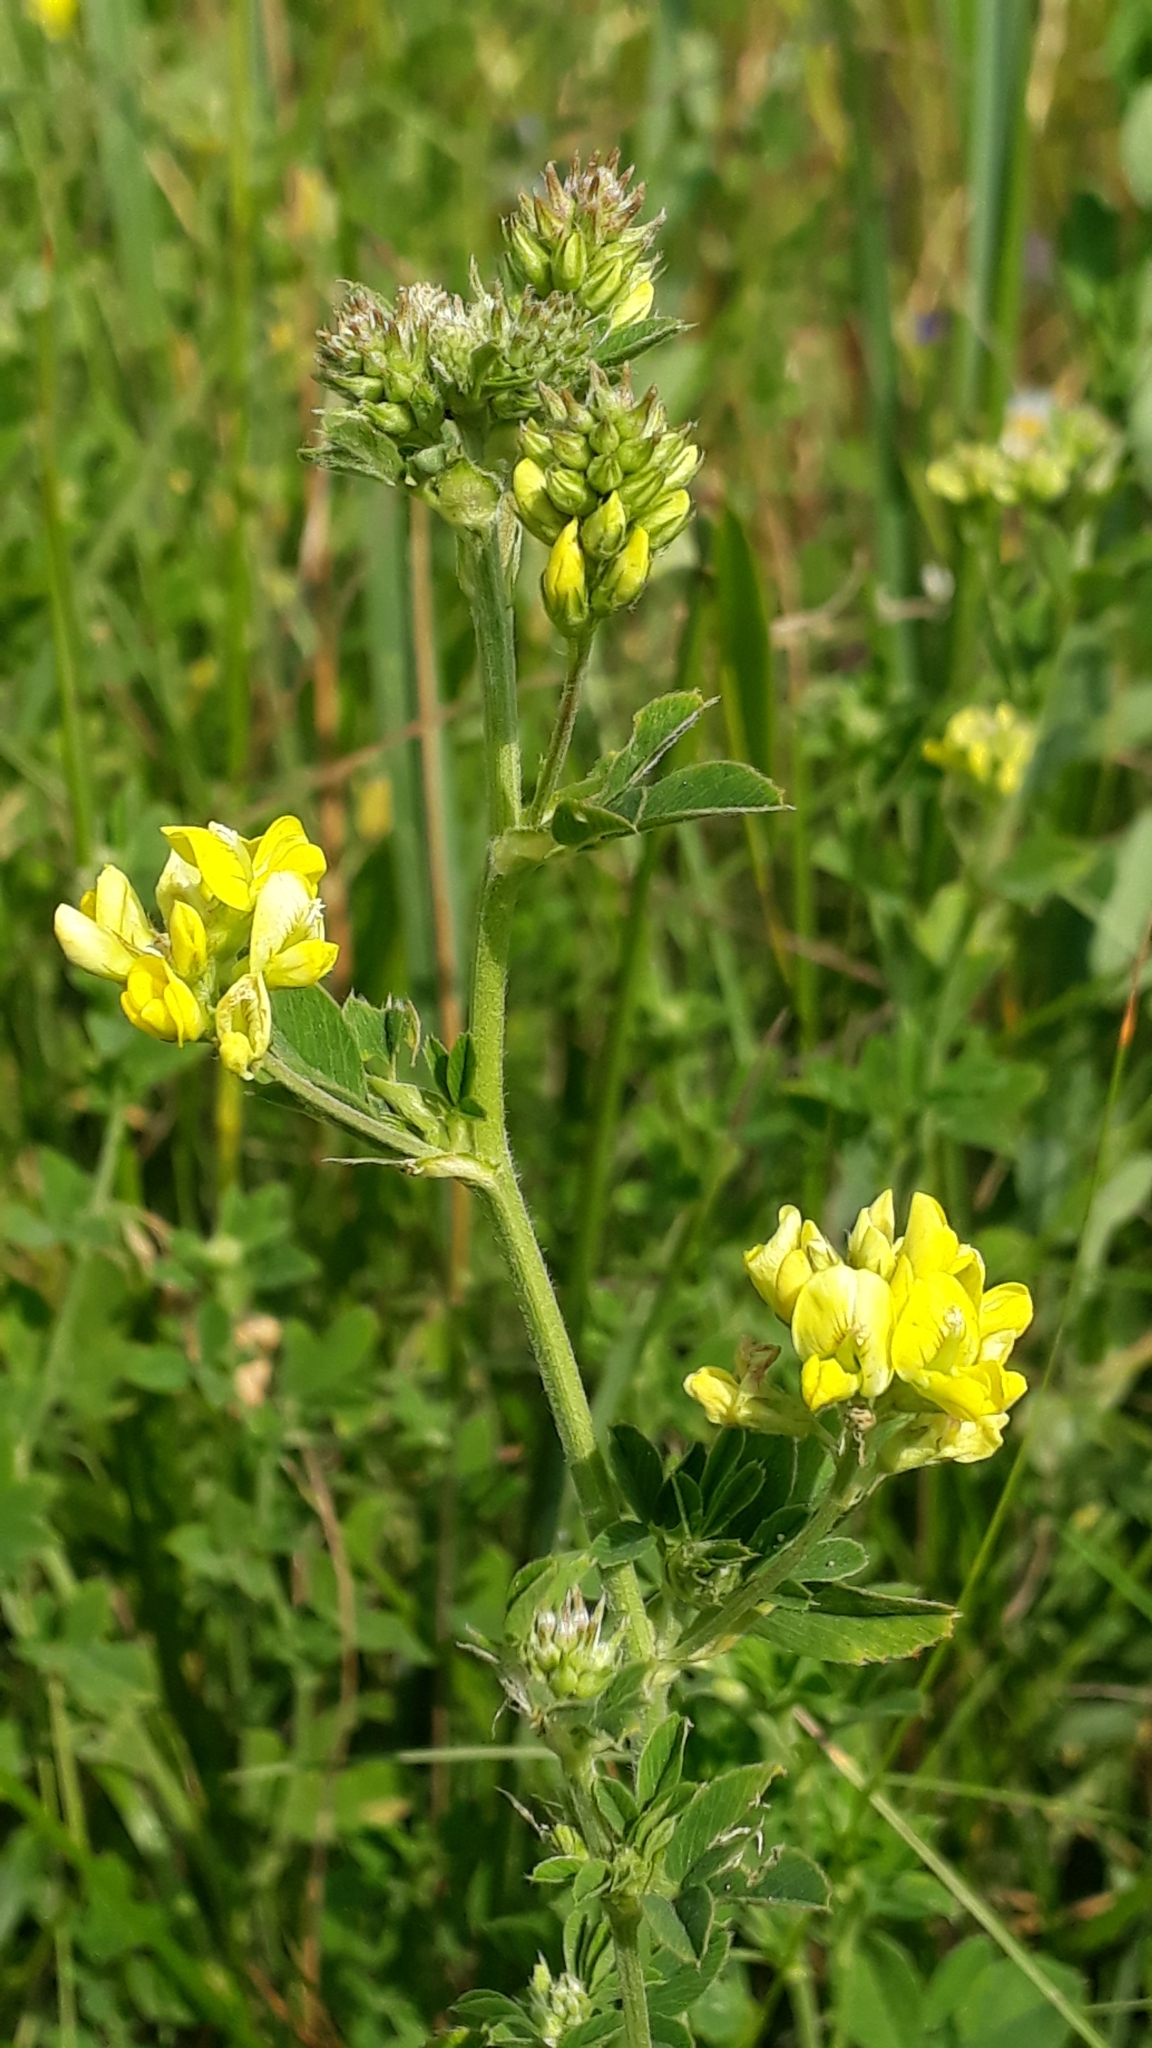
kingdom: Plantae
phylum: Tracheophyta
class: Magnoliopsida
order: Fabales
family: Fabaceae
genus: Medicago
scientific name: Medicago falcata
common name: Sickle medick
